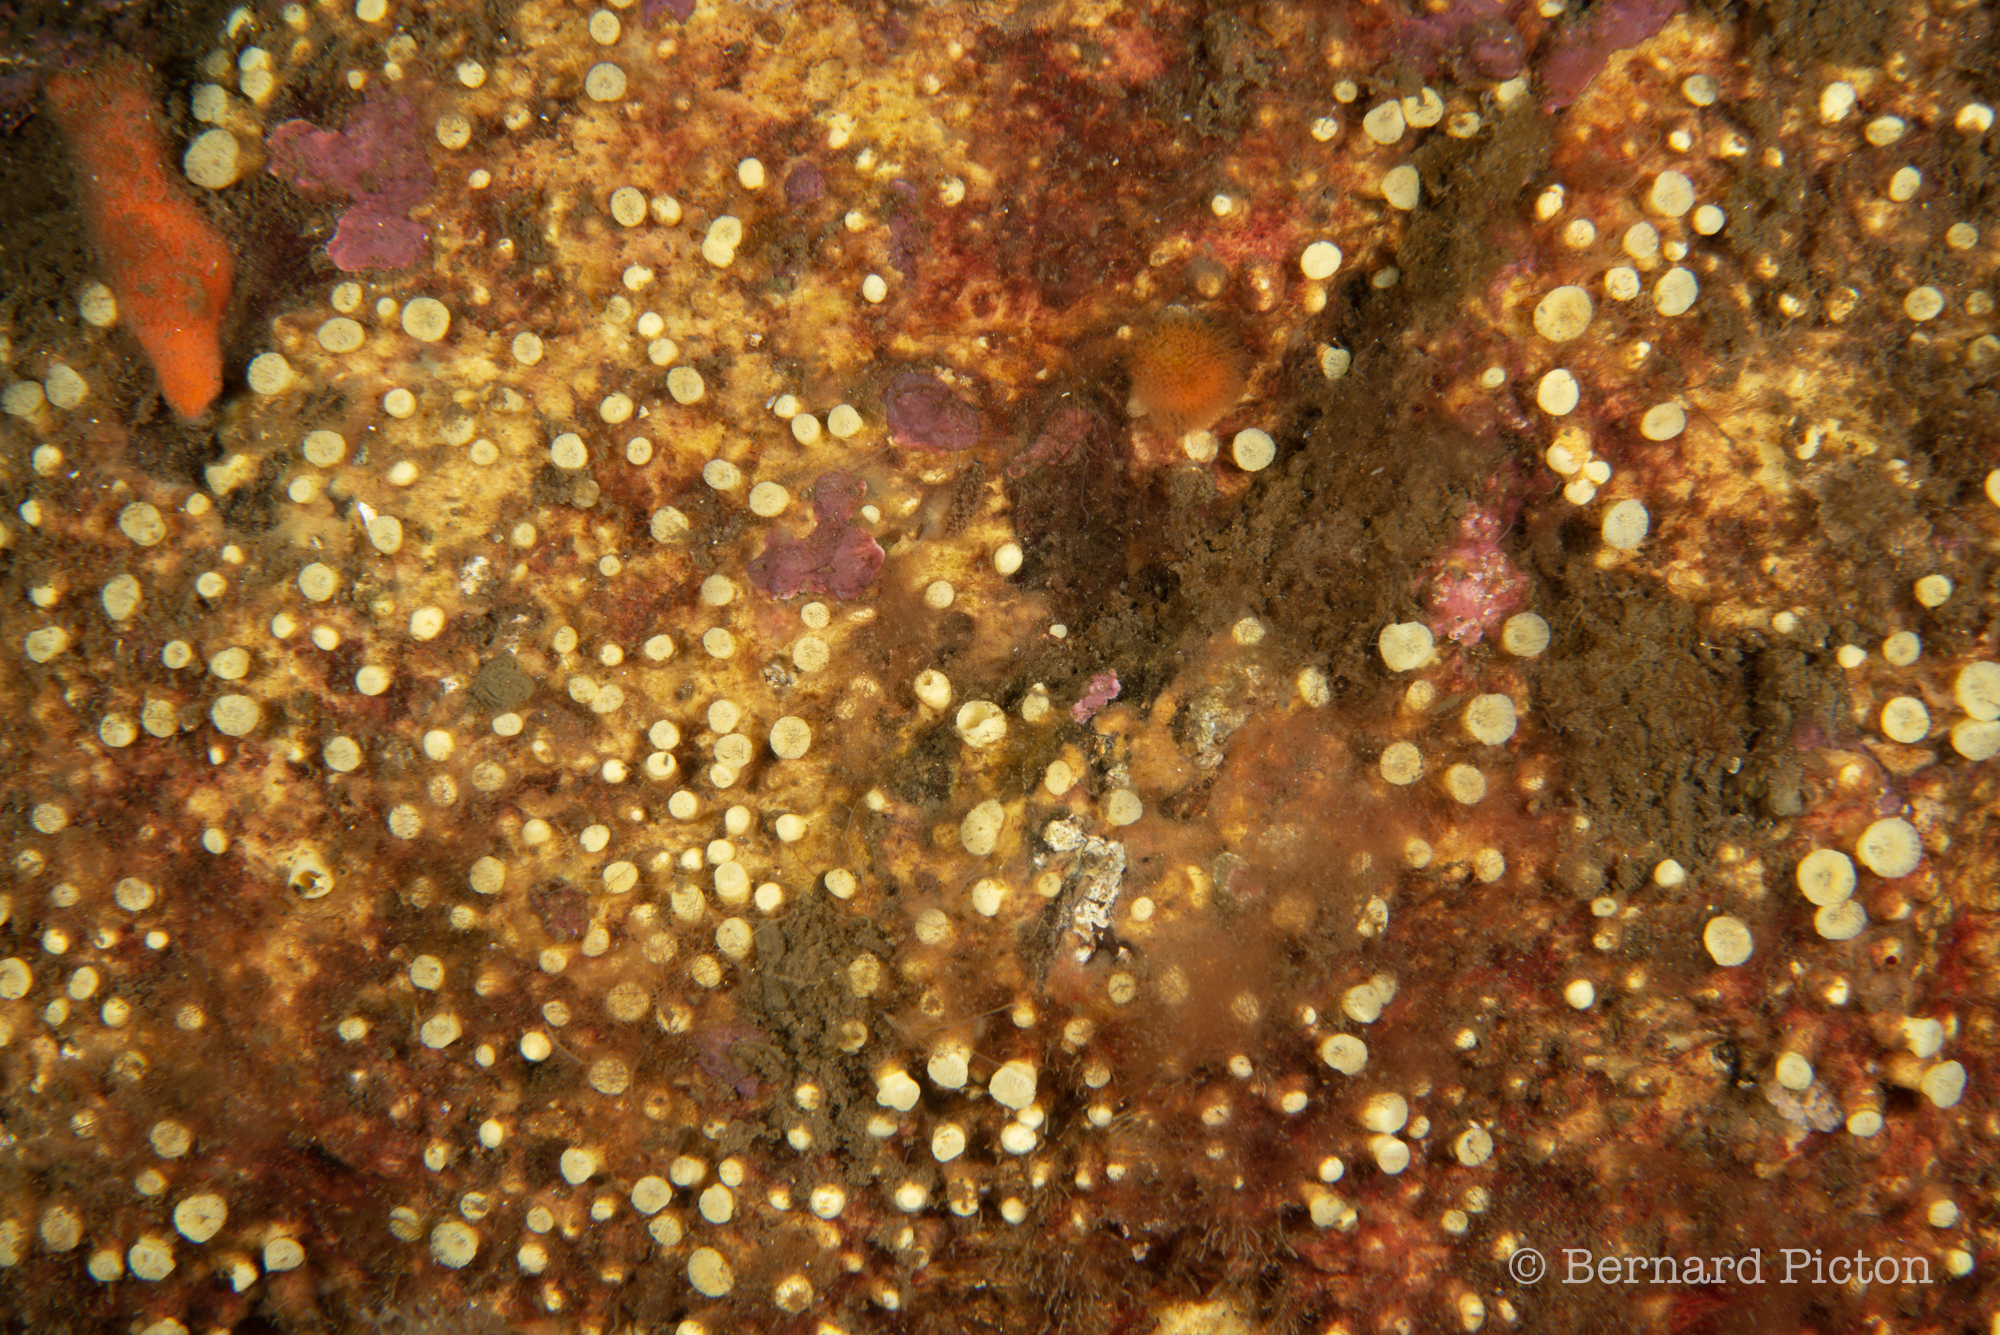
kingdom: Animalia
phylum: Porifera
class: Demospongiae
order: Clionaida
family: Clionaidae
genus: Cliona
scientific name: Cliona celata
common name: Boring sponge
